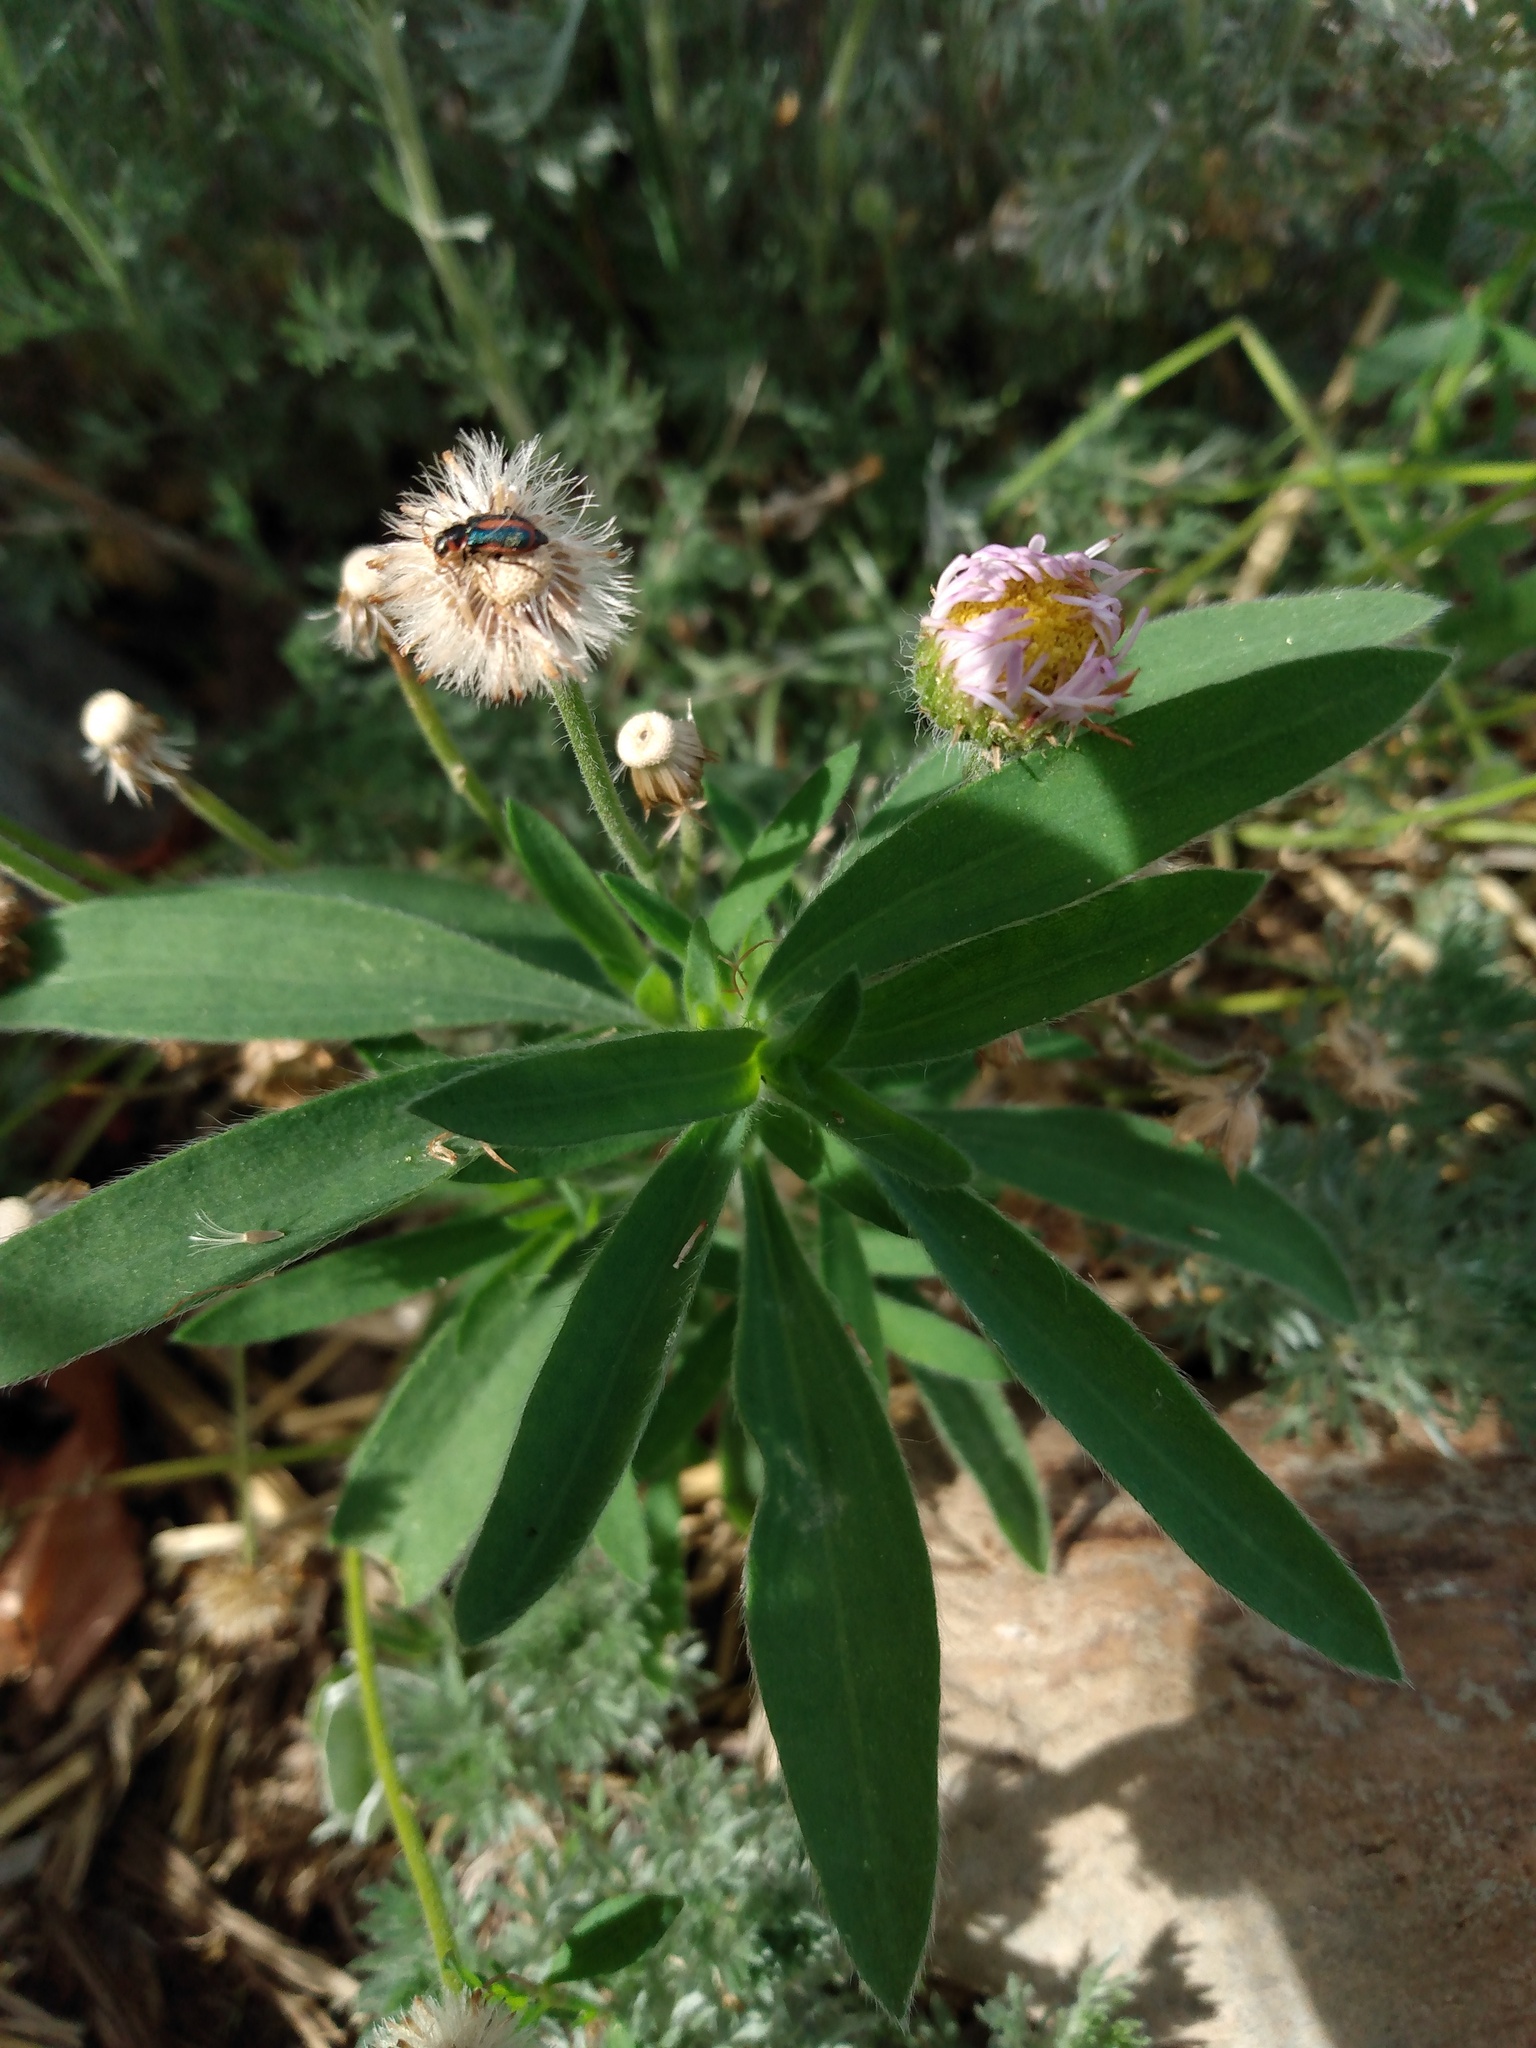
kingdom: Animalia
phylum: Arthropoda
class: Insecta
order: Coleoptera
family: Melyridae
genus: Collops
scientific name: Collops vittatus
